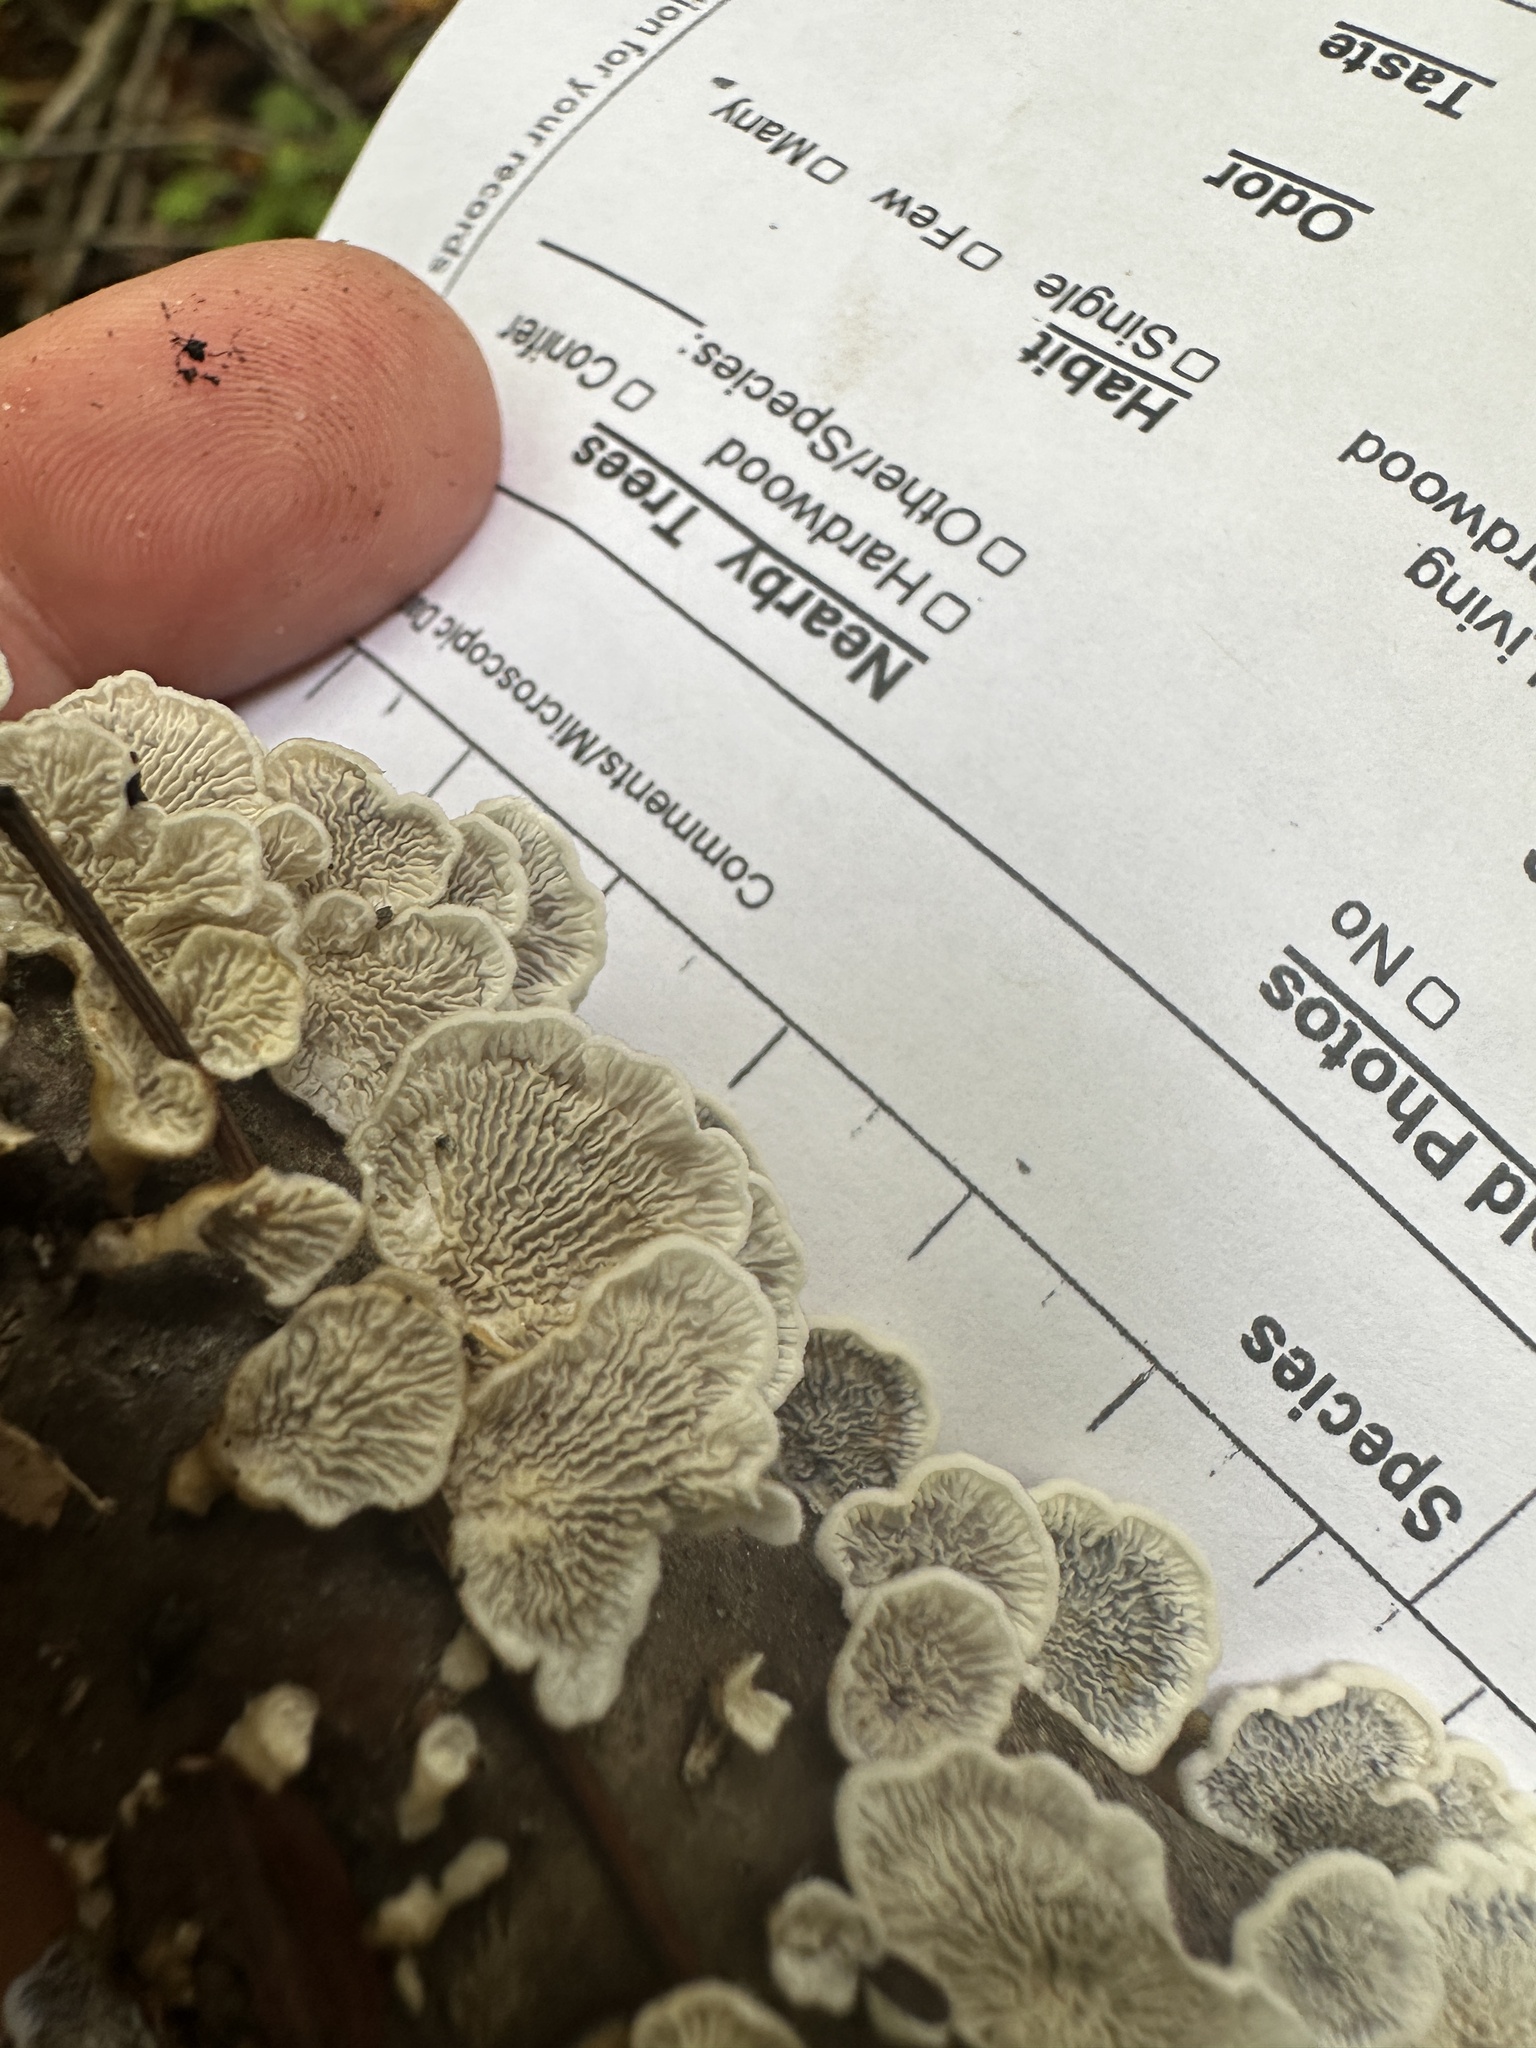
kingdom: Fungi
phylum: Basidiomycota
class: Agaricomycetes
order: Amylocorticiales
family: Amylocorticiaceae
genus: Plicaturopsis
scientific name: Plicaturopsis crispa
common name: Crimped gill
